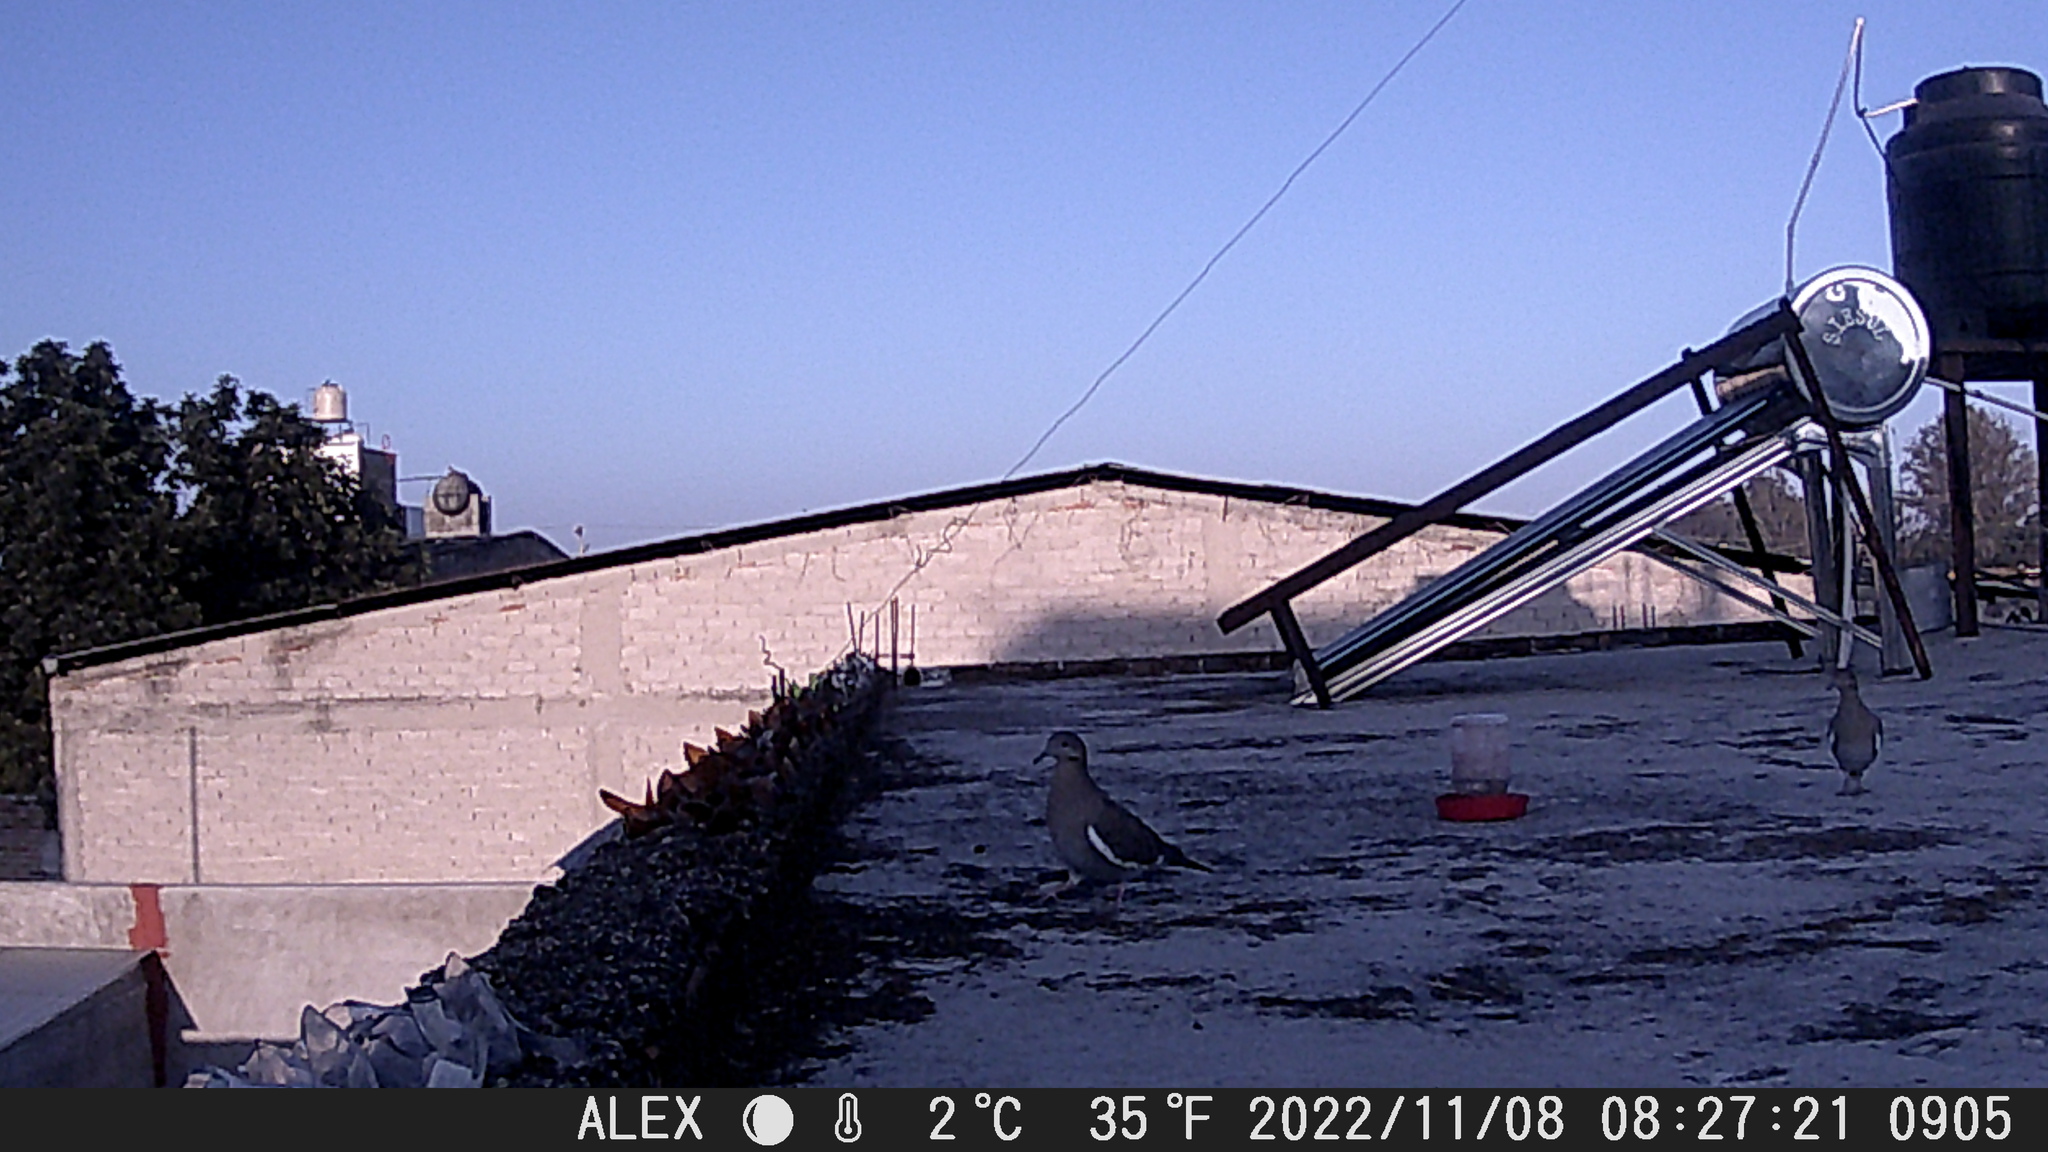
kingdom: Animalia
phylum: Chordata
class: Aves
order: Columbiformes
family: Columbidae
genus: Zenaida
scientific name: Zenaida asiatica
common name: White-winged dove
